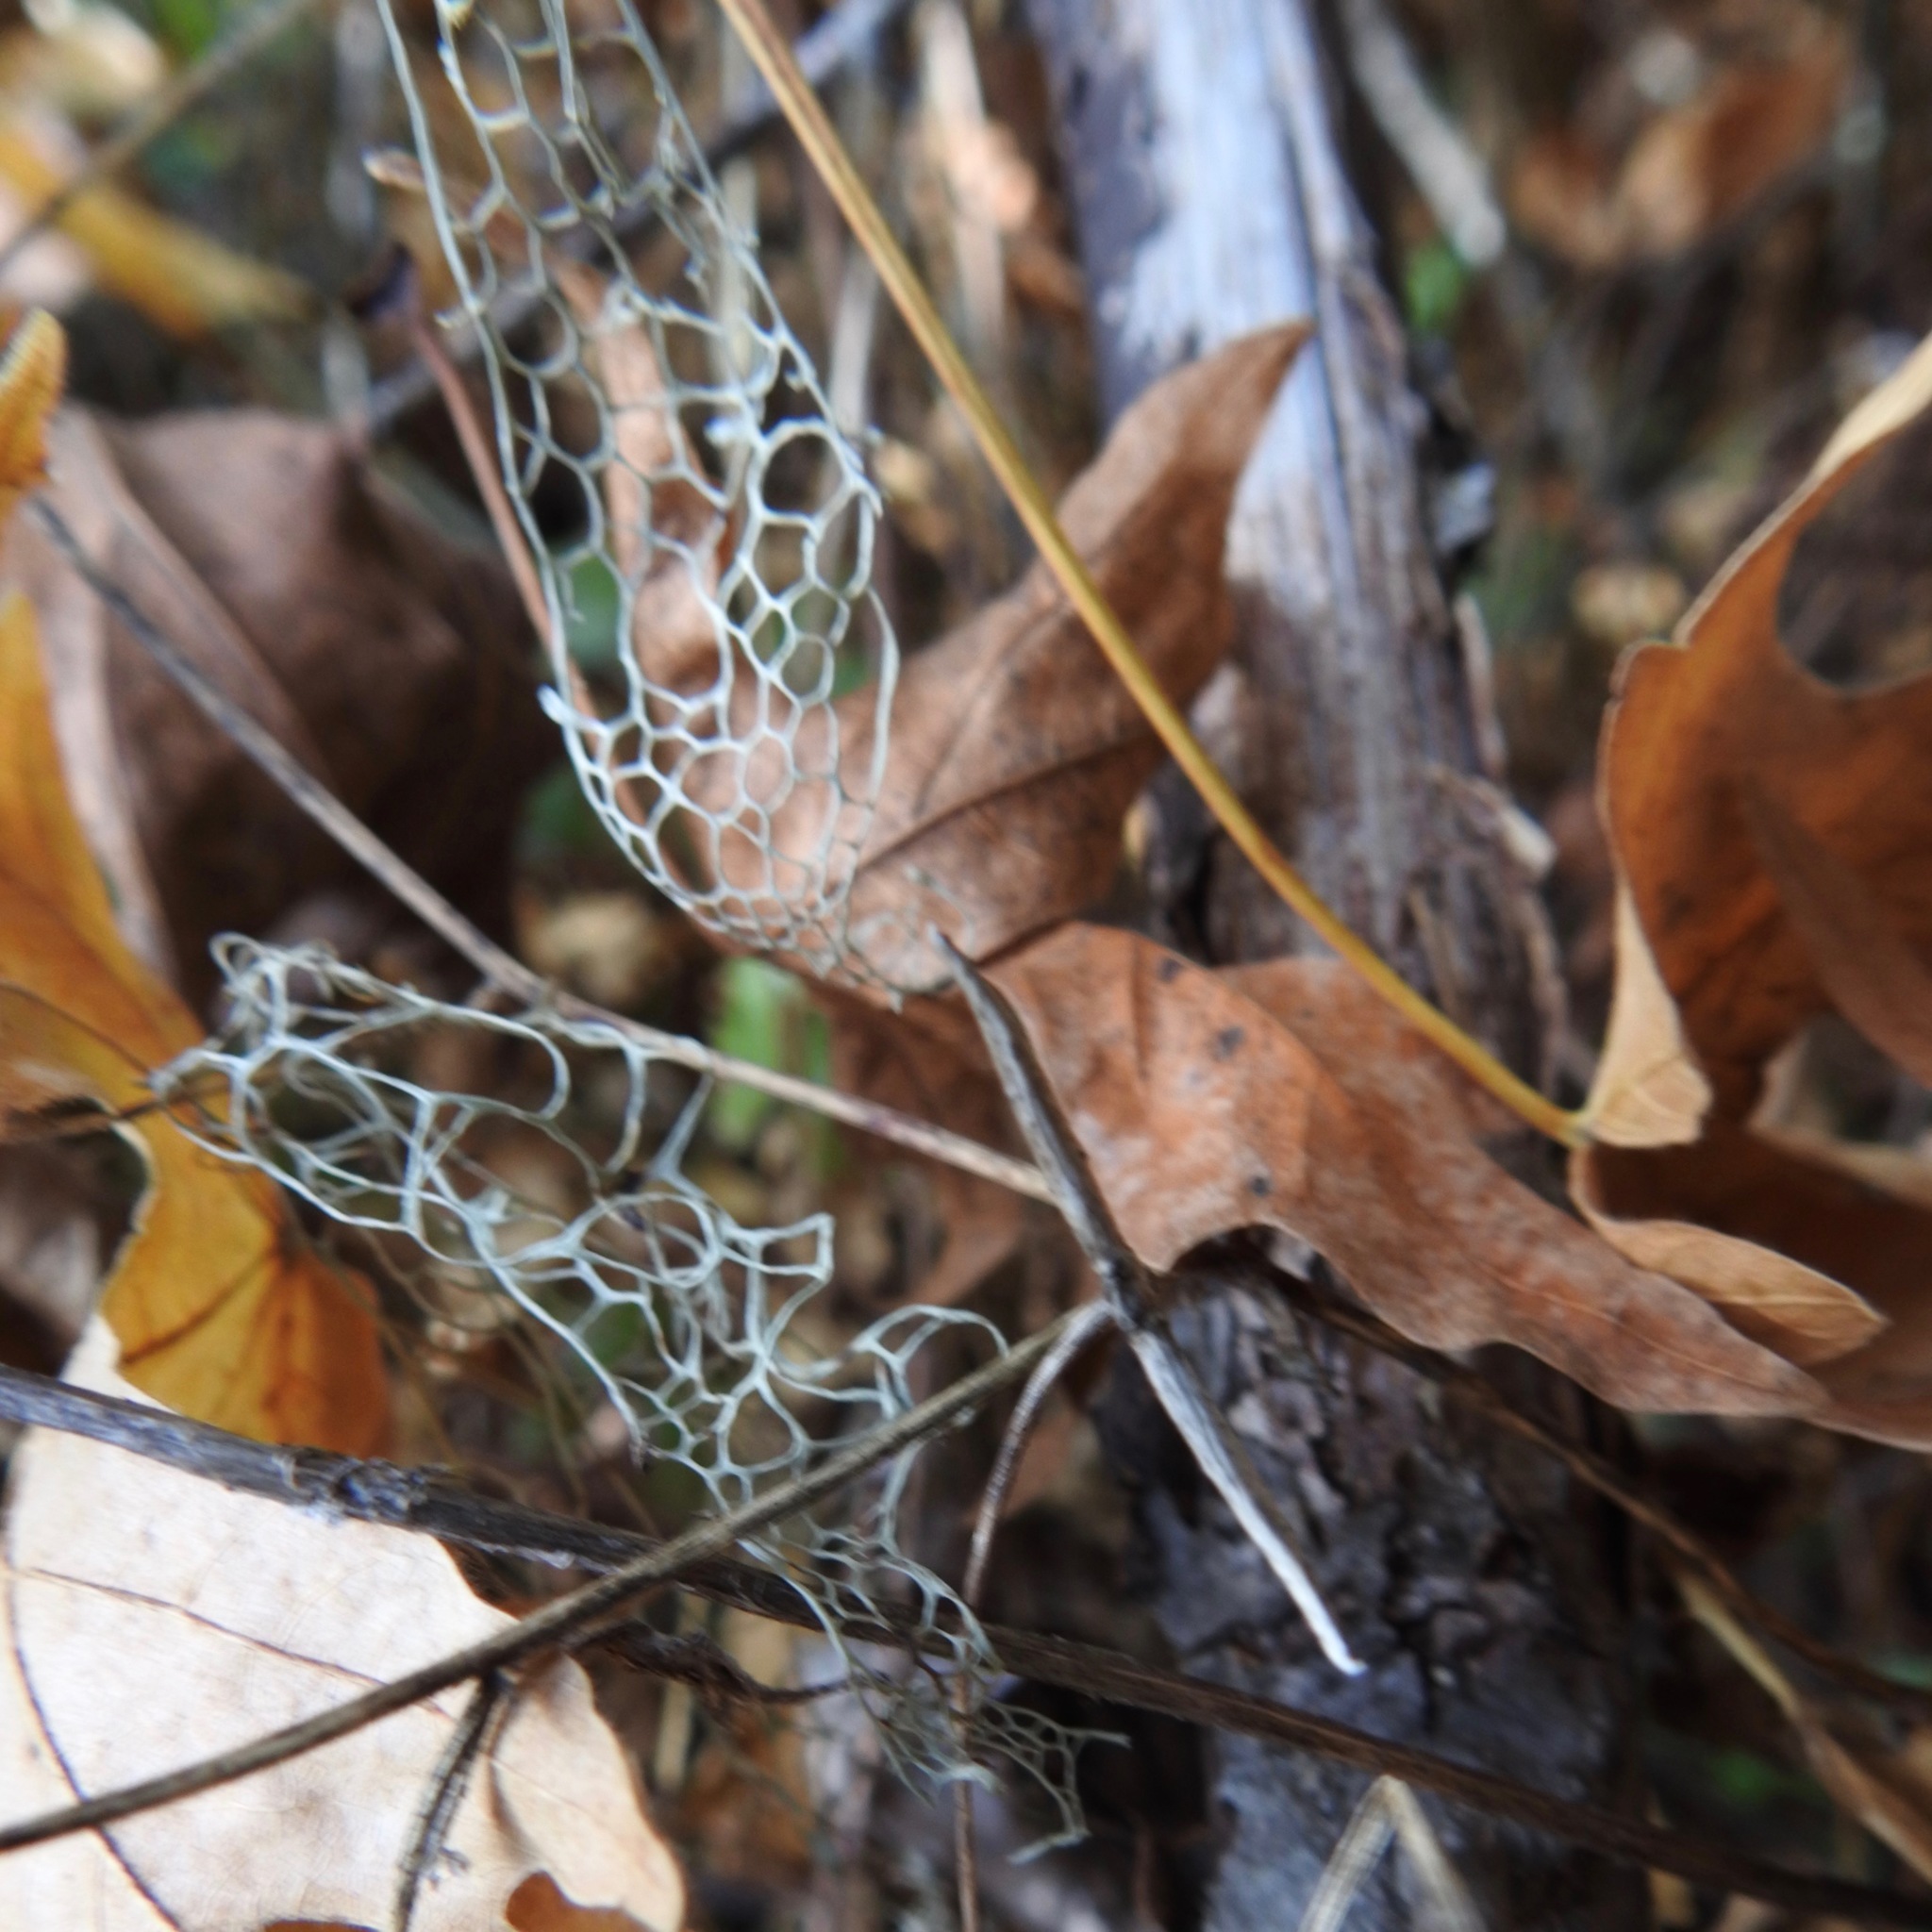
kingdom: Fungi
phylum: Ascomycota
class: Lecanoromycetes
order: Lecanorales
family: Ramalinaceae
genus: Ramalina
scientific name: Ramalina menziesii
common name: Lace lichen
